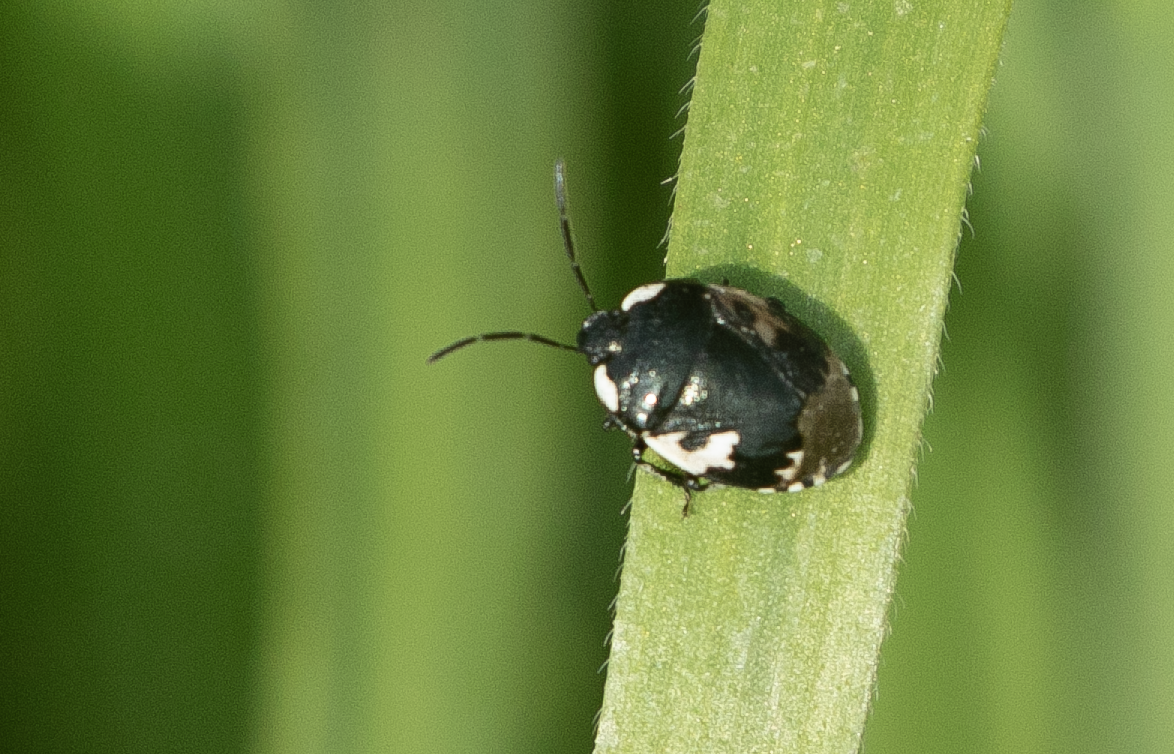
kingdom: Animalia
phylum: Arthropoda
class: Insecta
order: Hemiptera
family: Cydnidae
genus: Tritomegas
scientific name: Tritomegas bicolor
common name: Pied shieldbug
